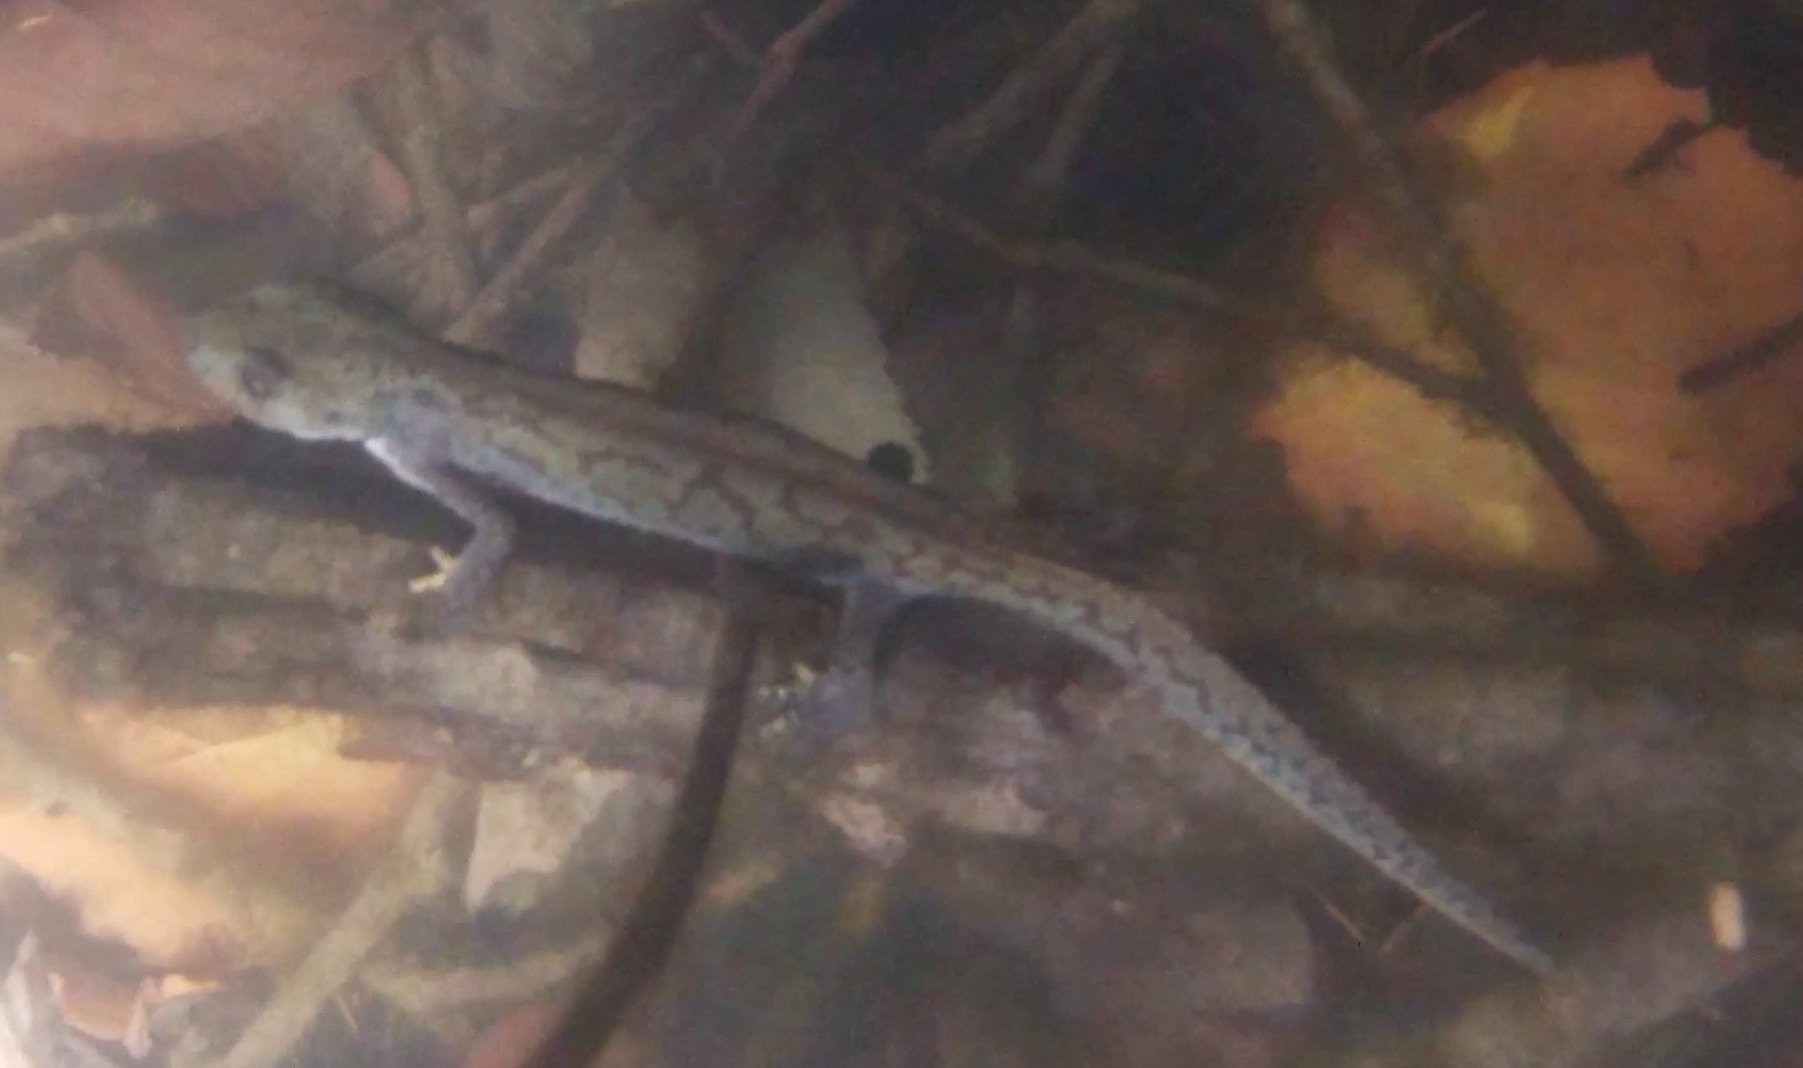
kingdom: Animalia
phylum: Chordata
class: Amphibia
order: Caudata
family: Salamandridae
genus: Ichthyosaura
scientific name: Ichthyosaura alpestris
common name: Alpine newt
